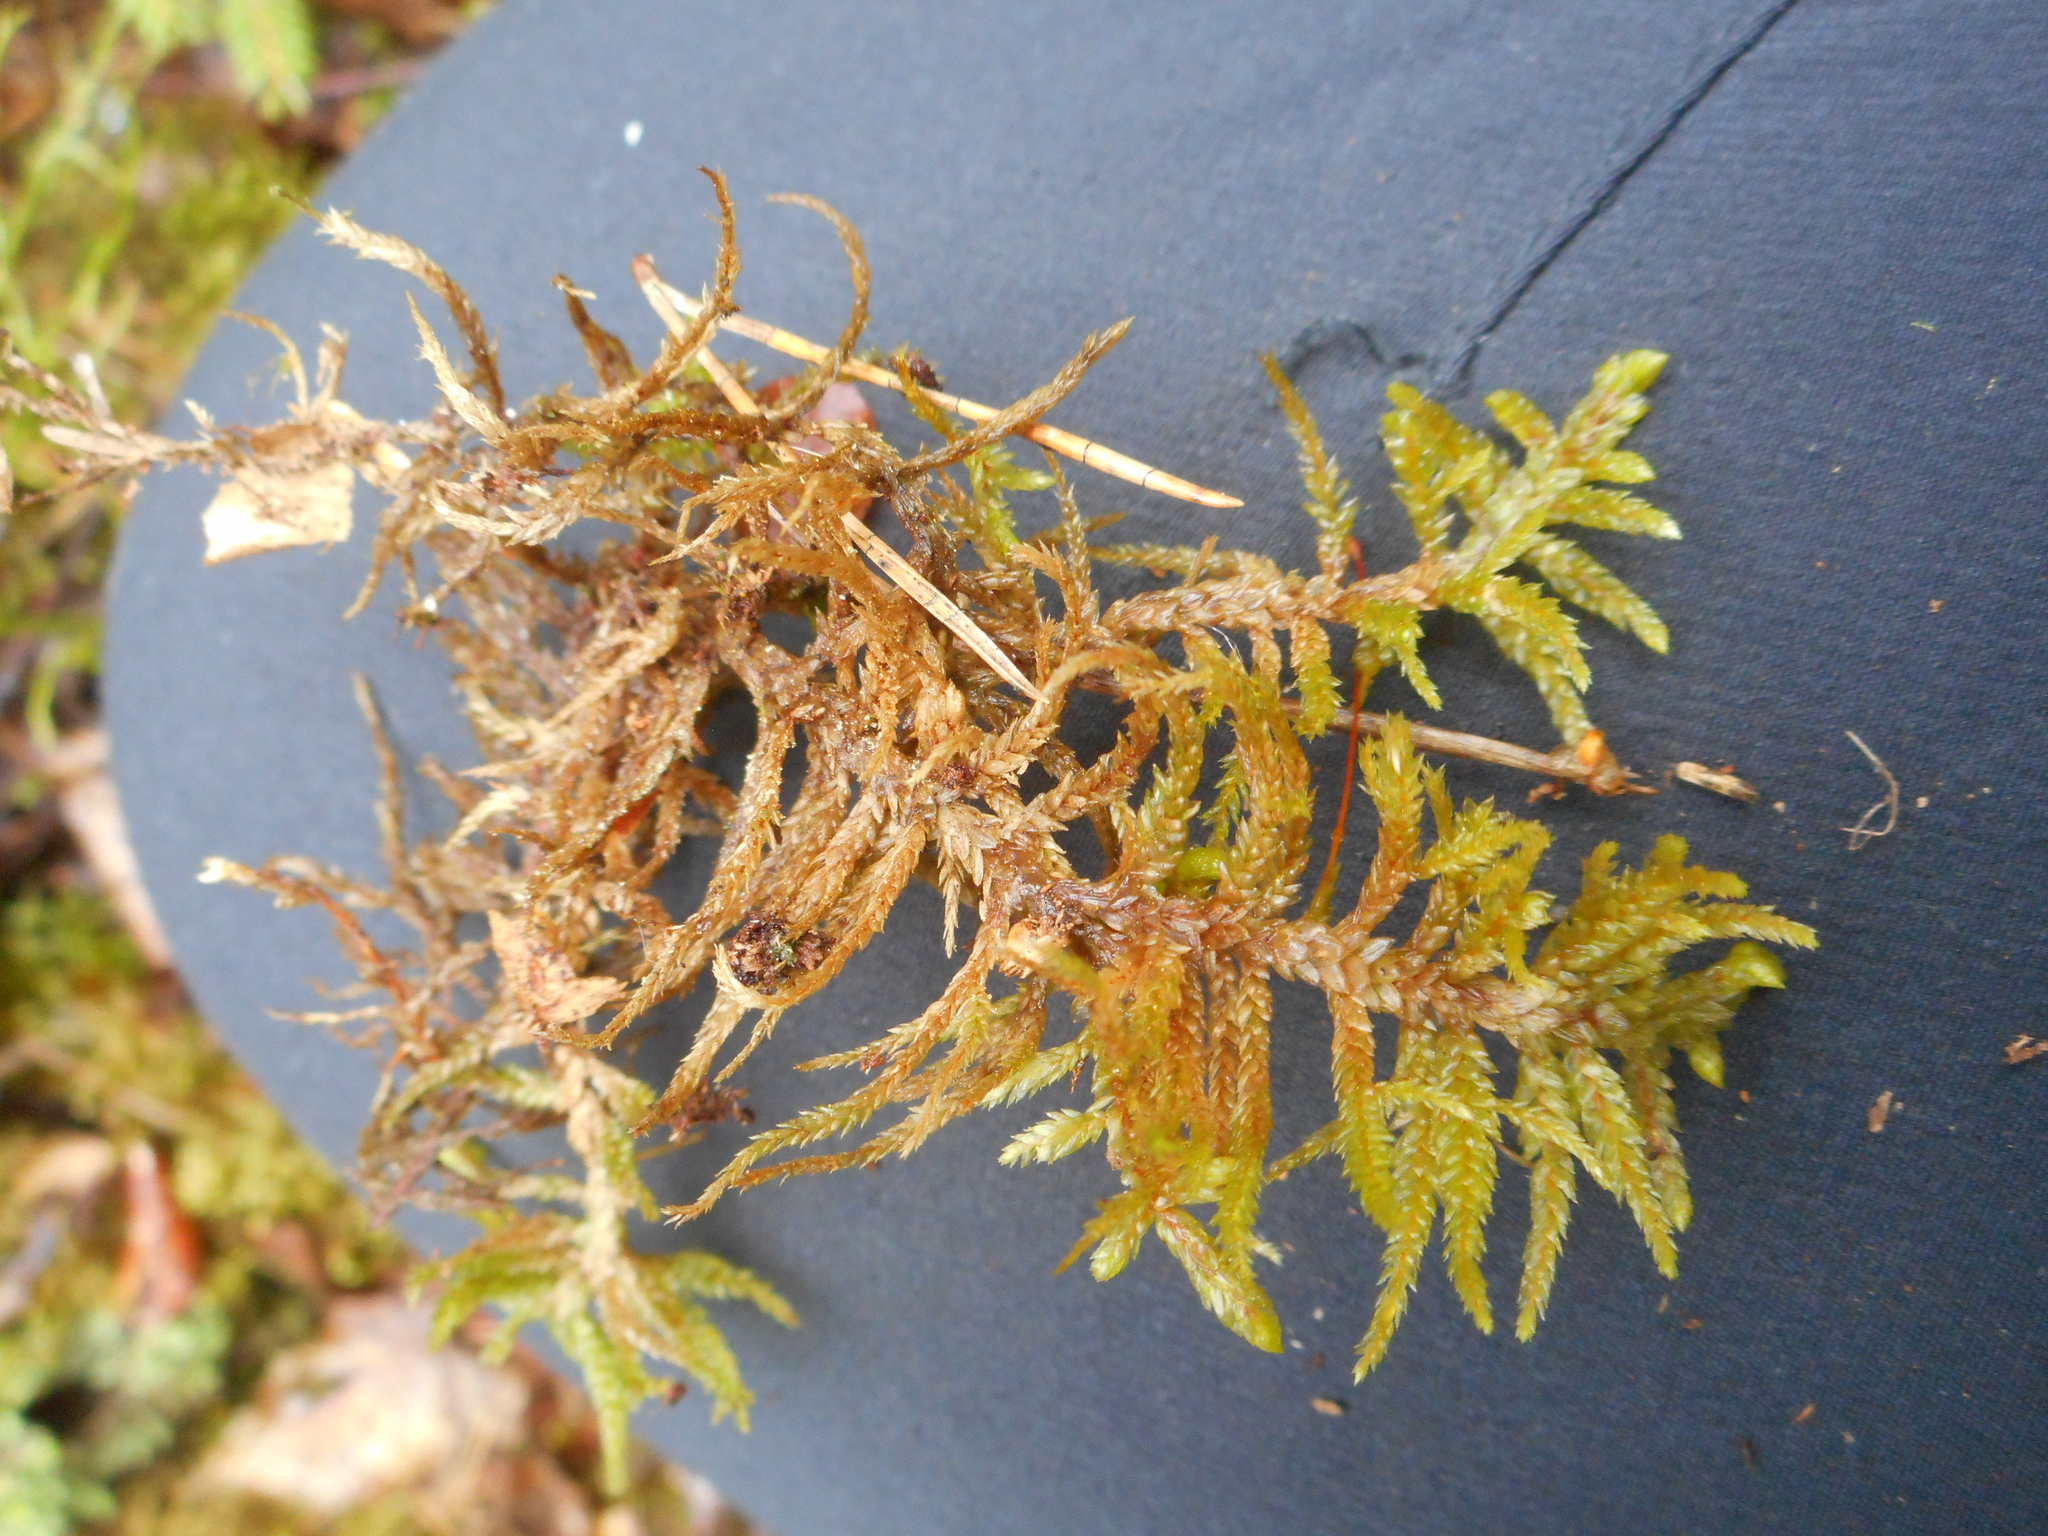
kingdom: Plantae
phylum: Bryophyta
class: Bryopsida
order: Hypnales
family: Hylocomiaceae
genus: Pleurozium
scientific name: Pleurozium schreberi
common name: Red-stemmed feather moss
